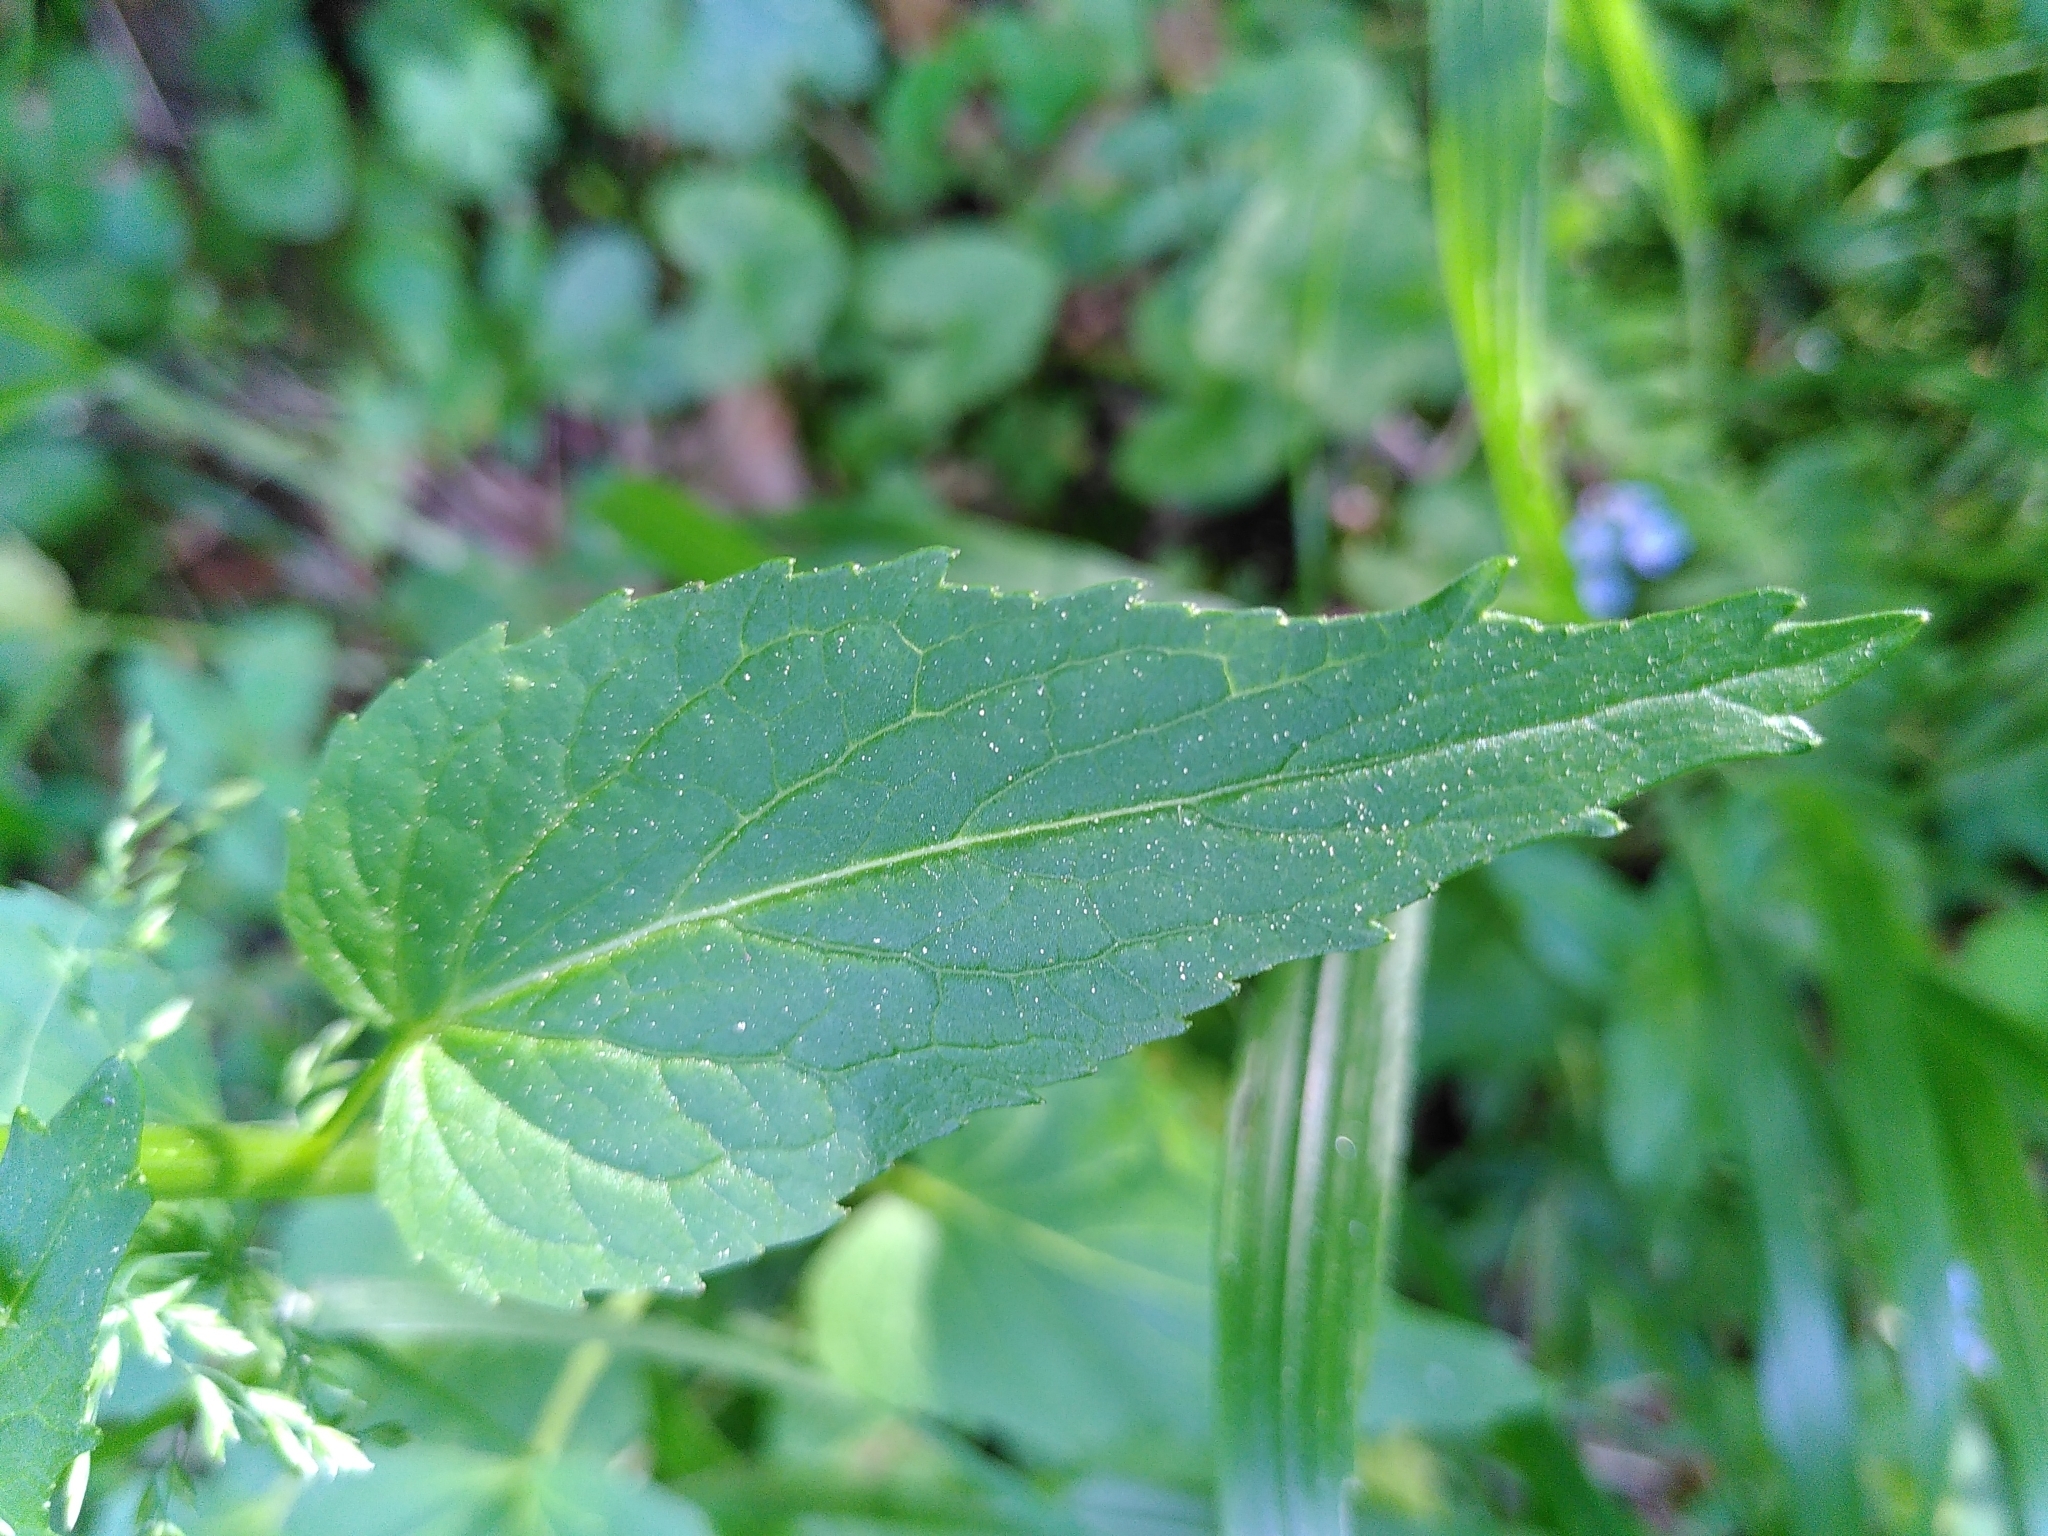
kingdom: Plantae
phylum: Tracheophyta
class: Magnoliopsida
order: Asterales
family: Campanulaceae
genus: Phyteuma
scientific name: Phyteuma spicatum
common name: Spiked rampion
